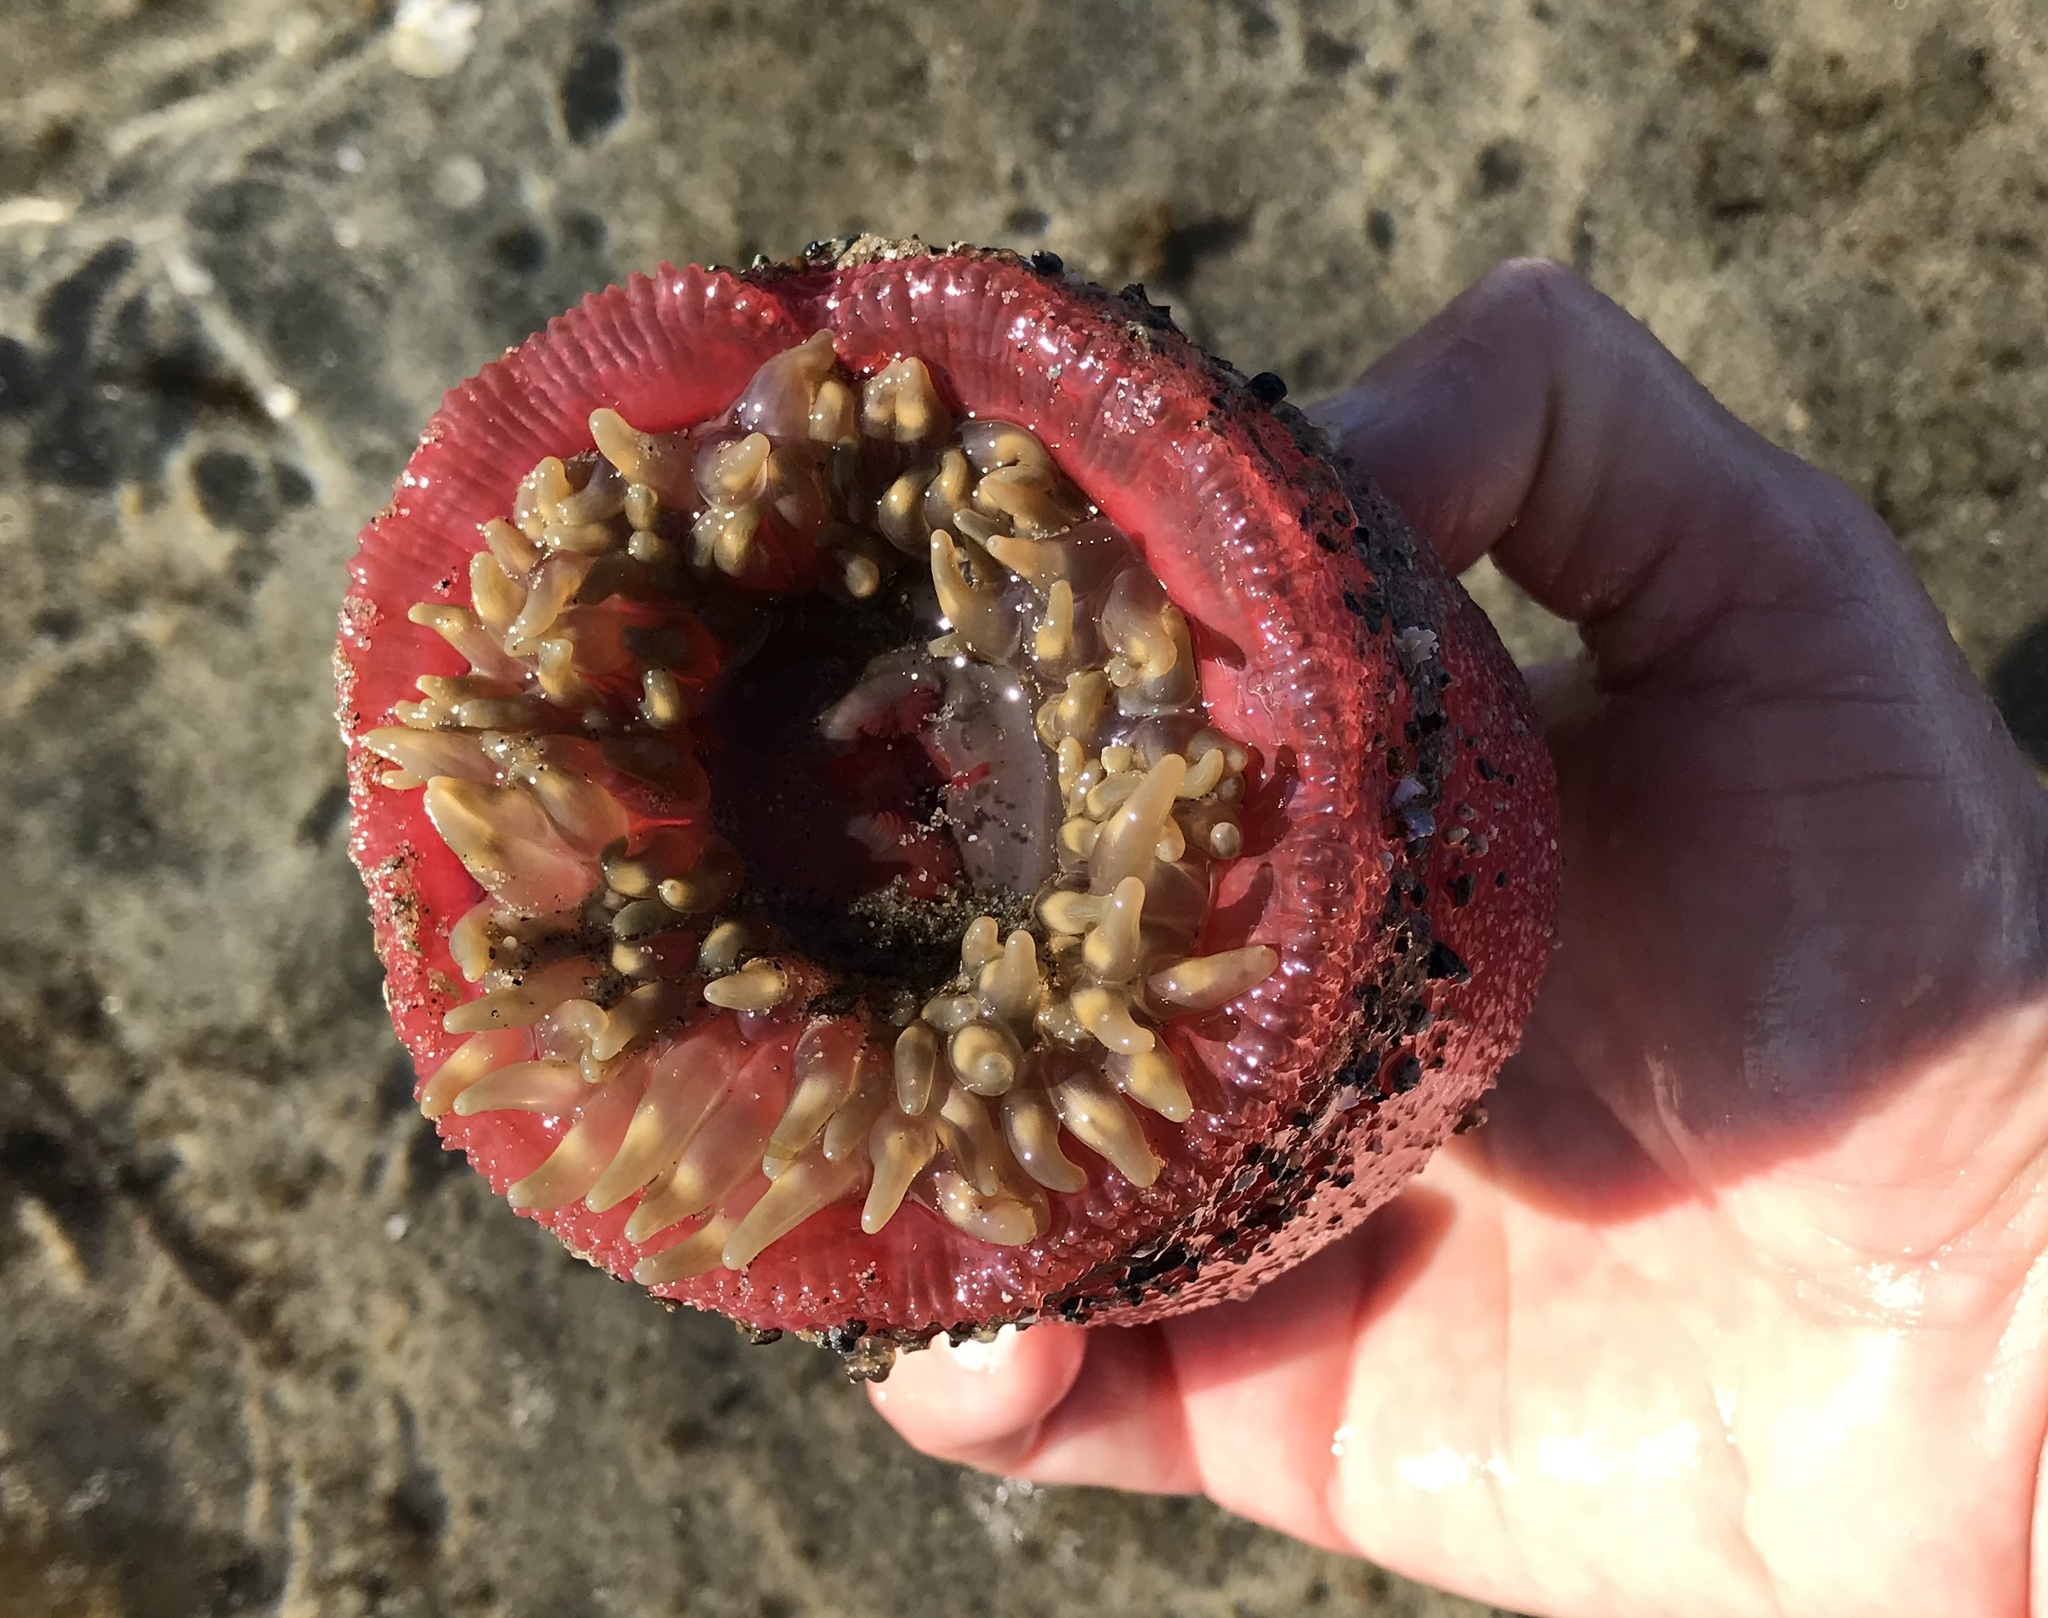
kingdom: Animalia
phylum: Cnidaria
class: Anthozoa
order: Actiniaria
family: Actiniidae
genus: Urticina
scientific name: Urticina clandestina
